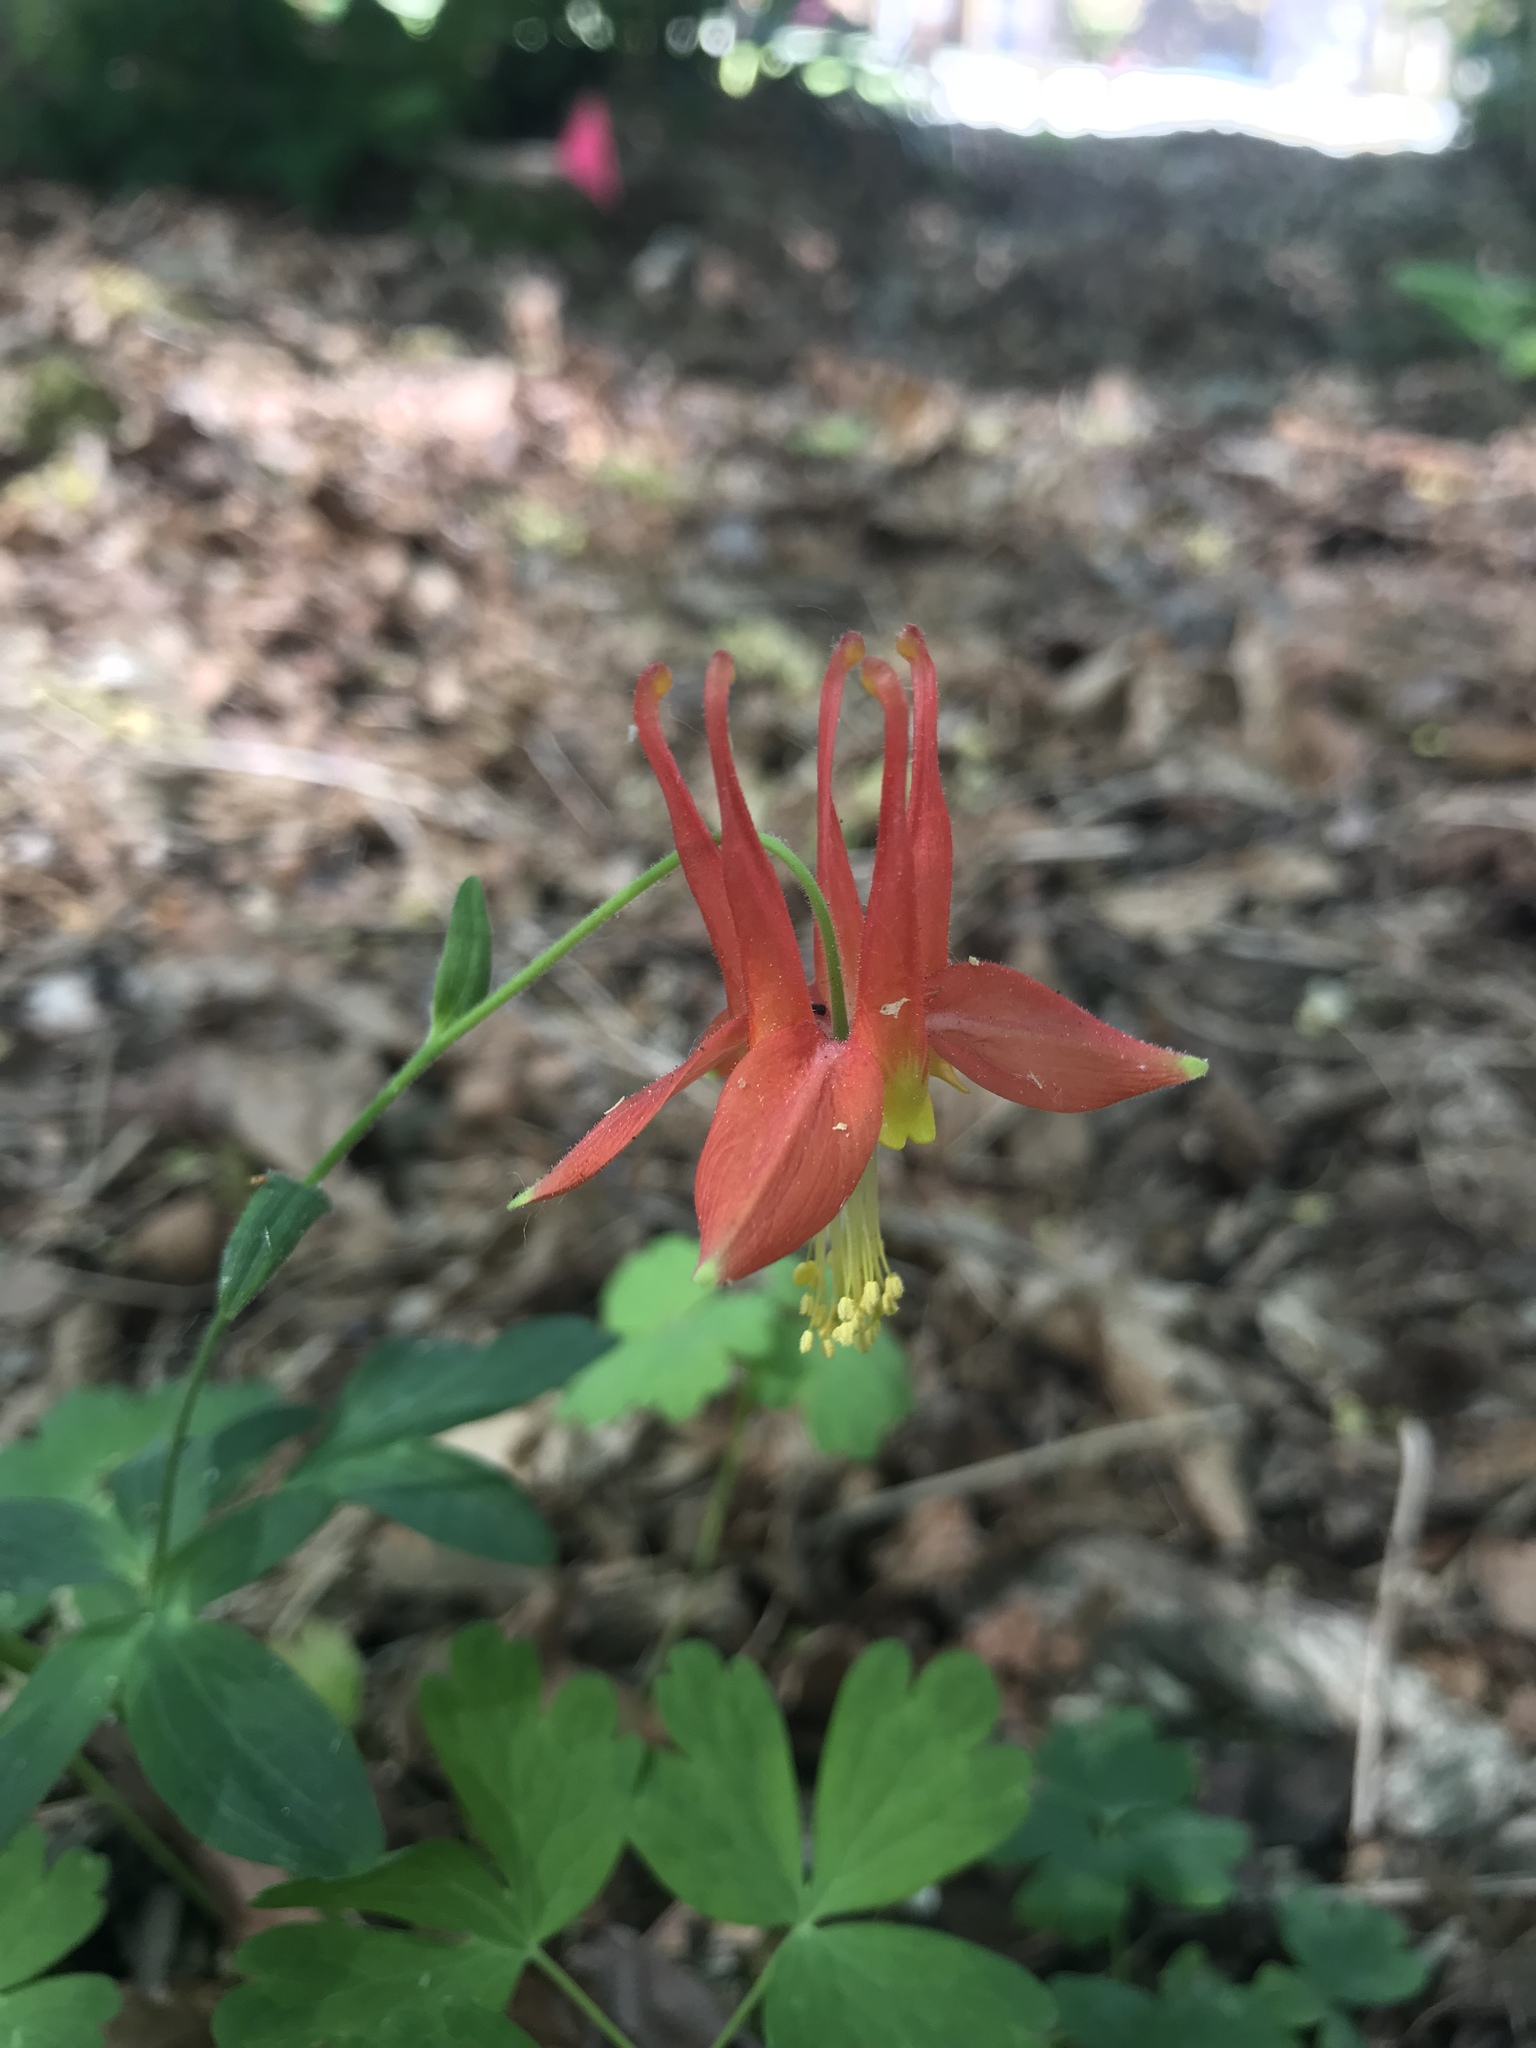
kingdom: Plantae
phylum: Tracheophyta
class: Magnoliopsida
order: Ranunculales
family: Ranunculaceae
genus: Aquilegia
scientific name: Aquilegia formosa
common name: Sitka columbine
